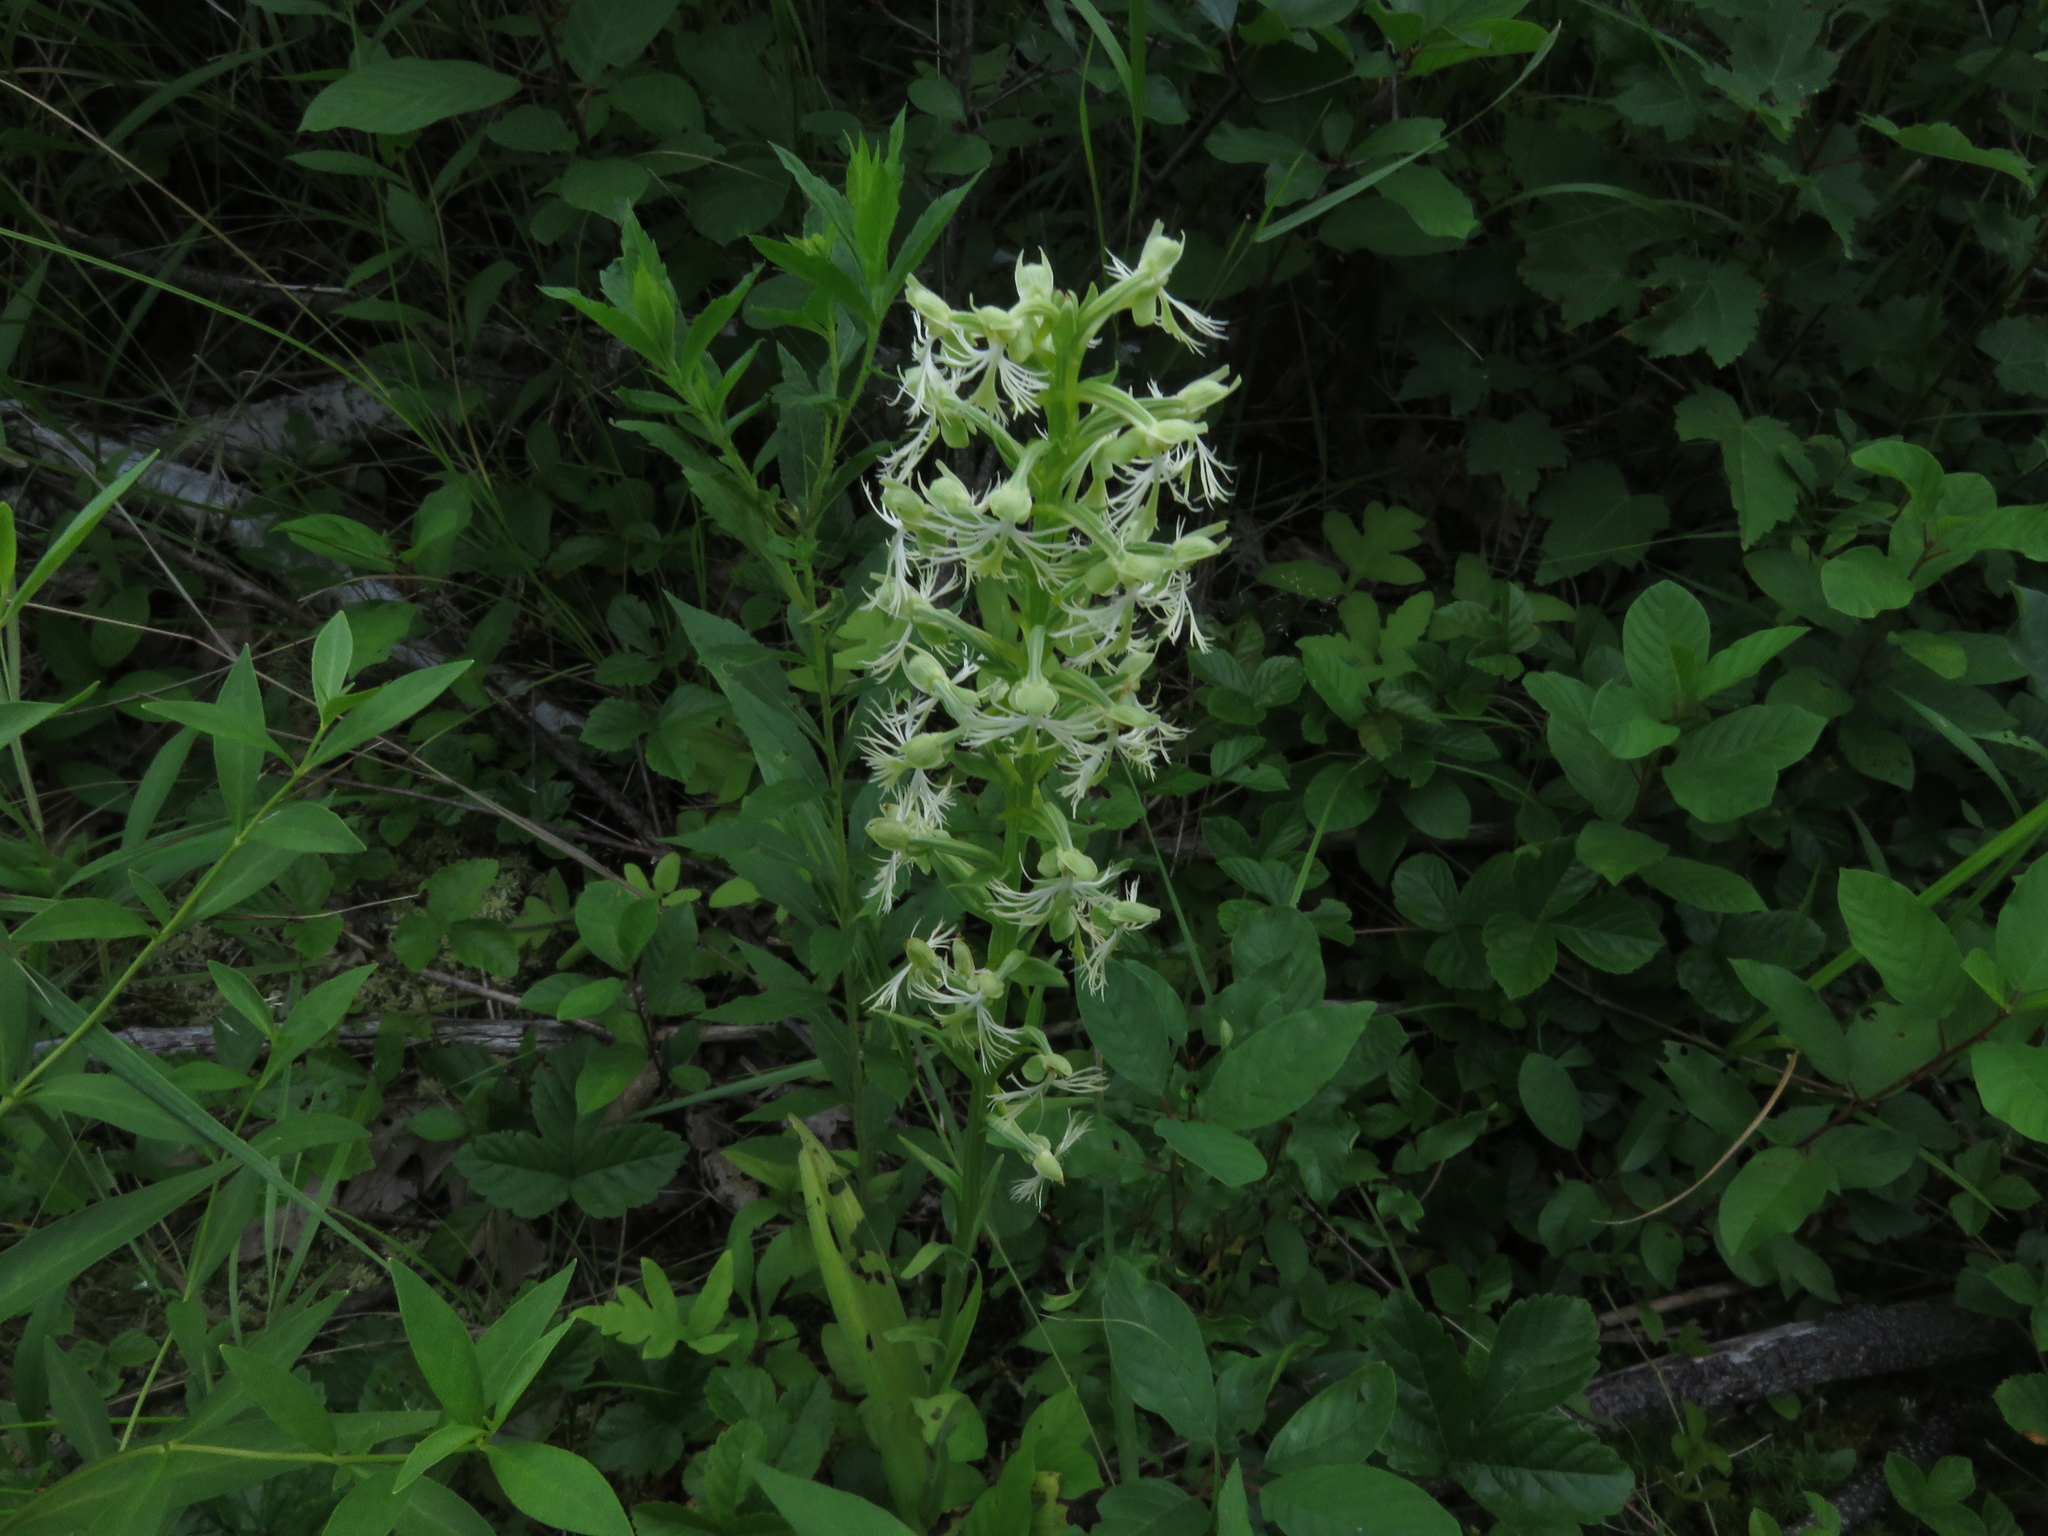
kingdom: Plantae
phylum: Tracheophyta
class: Liliopsida
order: Asparagales
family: Orchidaceae
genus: Platanthera
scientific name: Platanthera lacera
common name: Green fringed orchid
